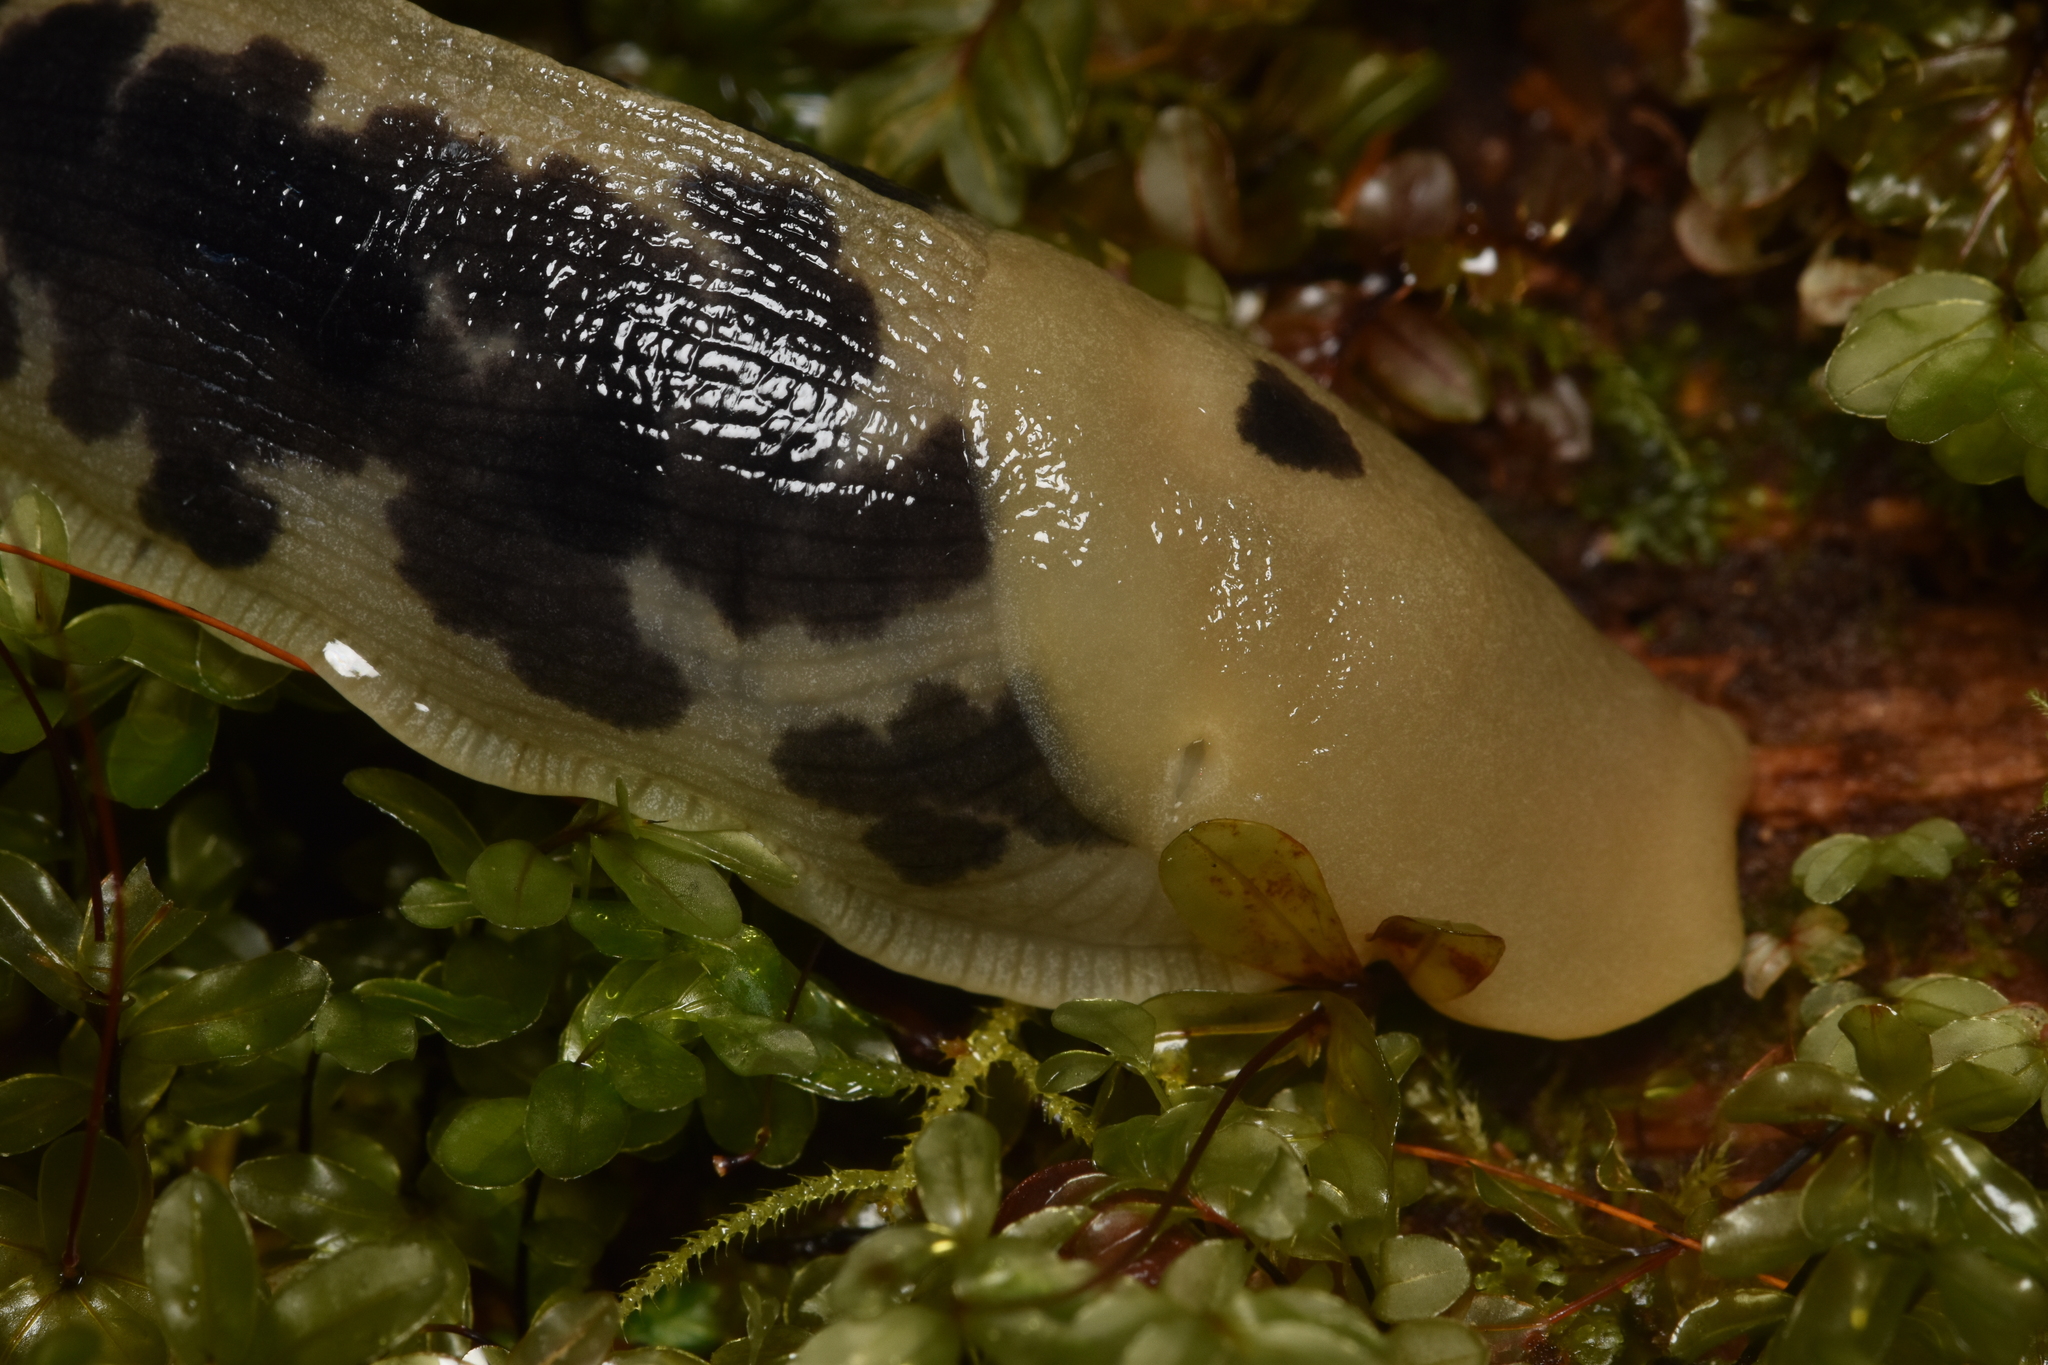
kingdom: Animalia
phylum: Mollusca
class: Gastropoda
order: Stylommatophora
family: Ariolimacidae
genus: Ariolimax
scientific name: Ariolimax columbianus
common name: Pacific banana slug
